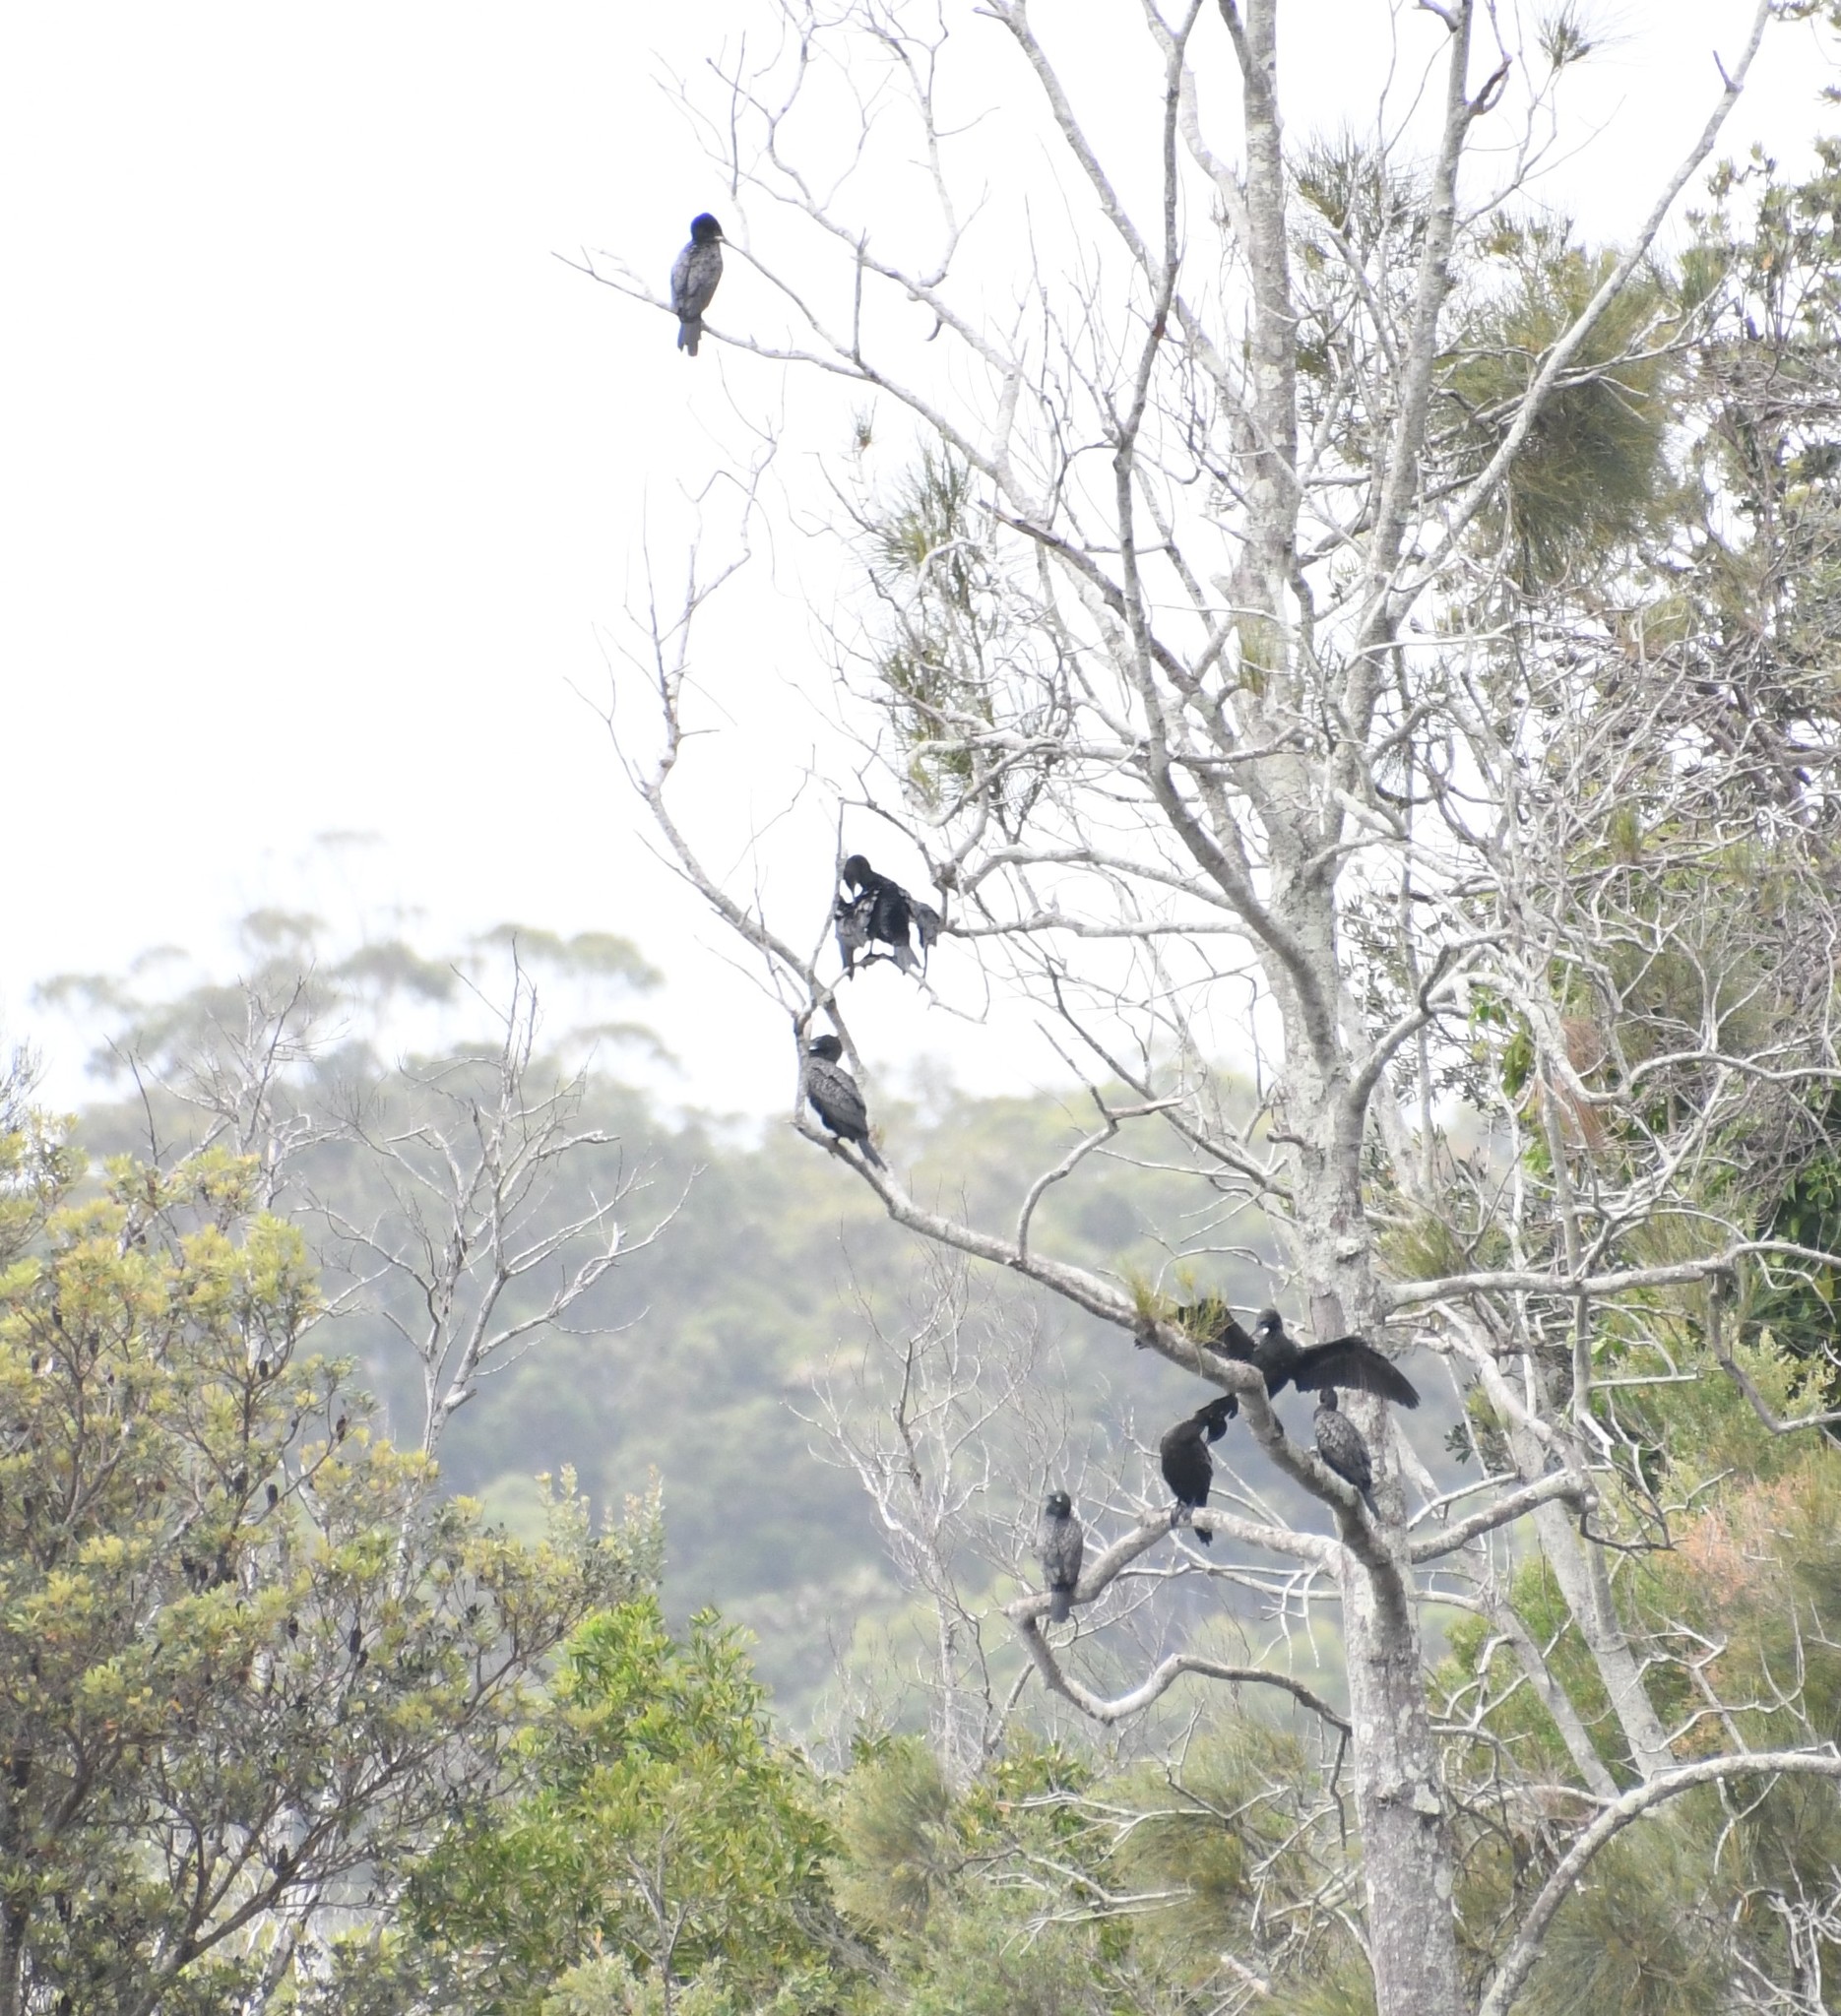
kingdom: Animalia
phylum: Chordata
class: Aves
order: Suliformes
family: Phalacrocoracidae
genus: Phalacrocorax
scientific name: Phalacrocorax sulcirostris
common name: Little black cormorant
